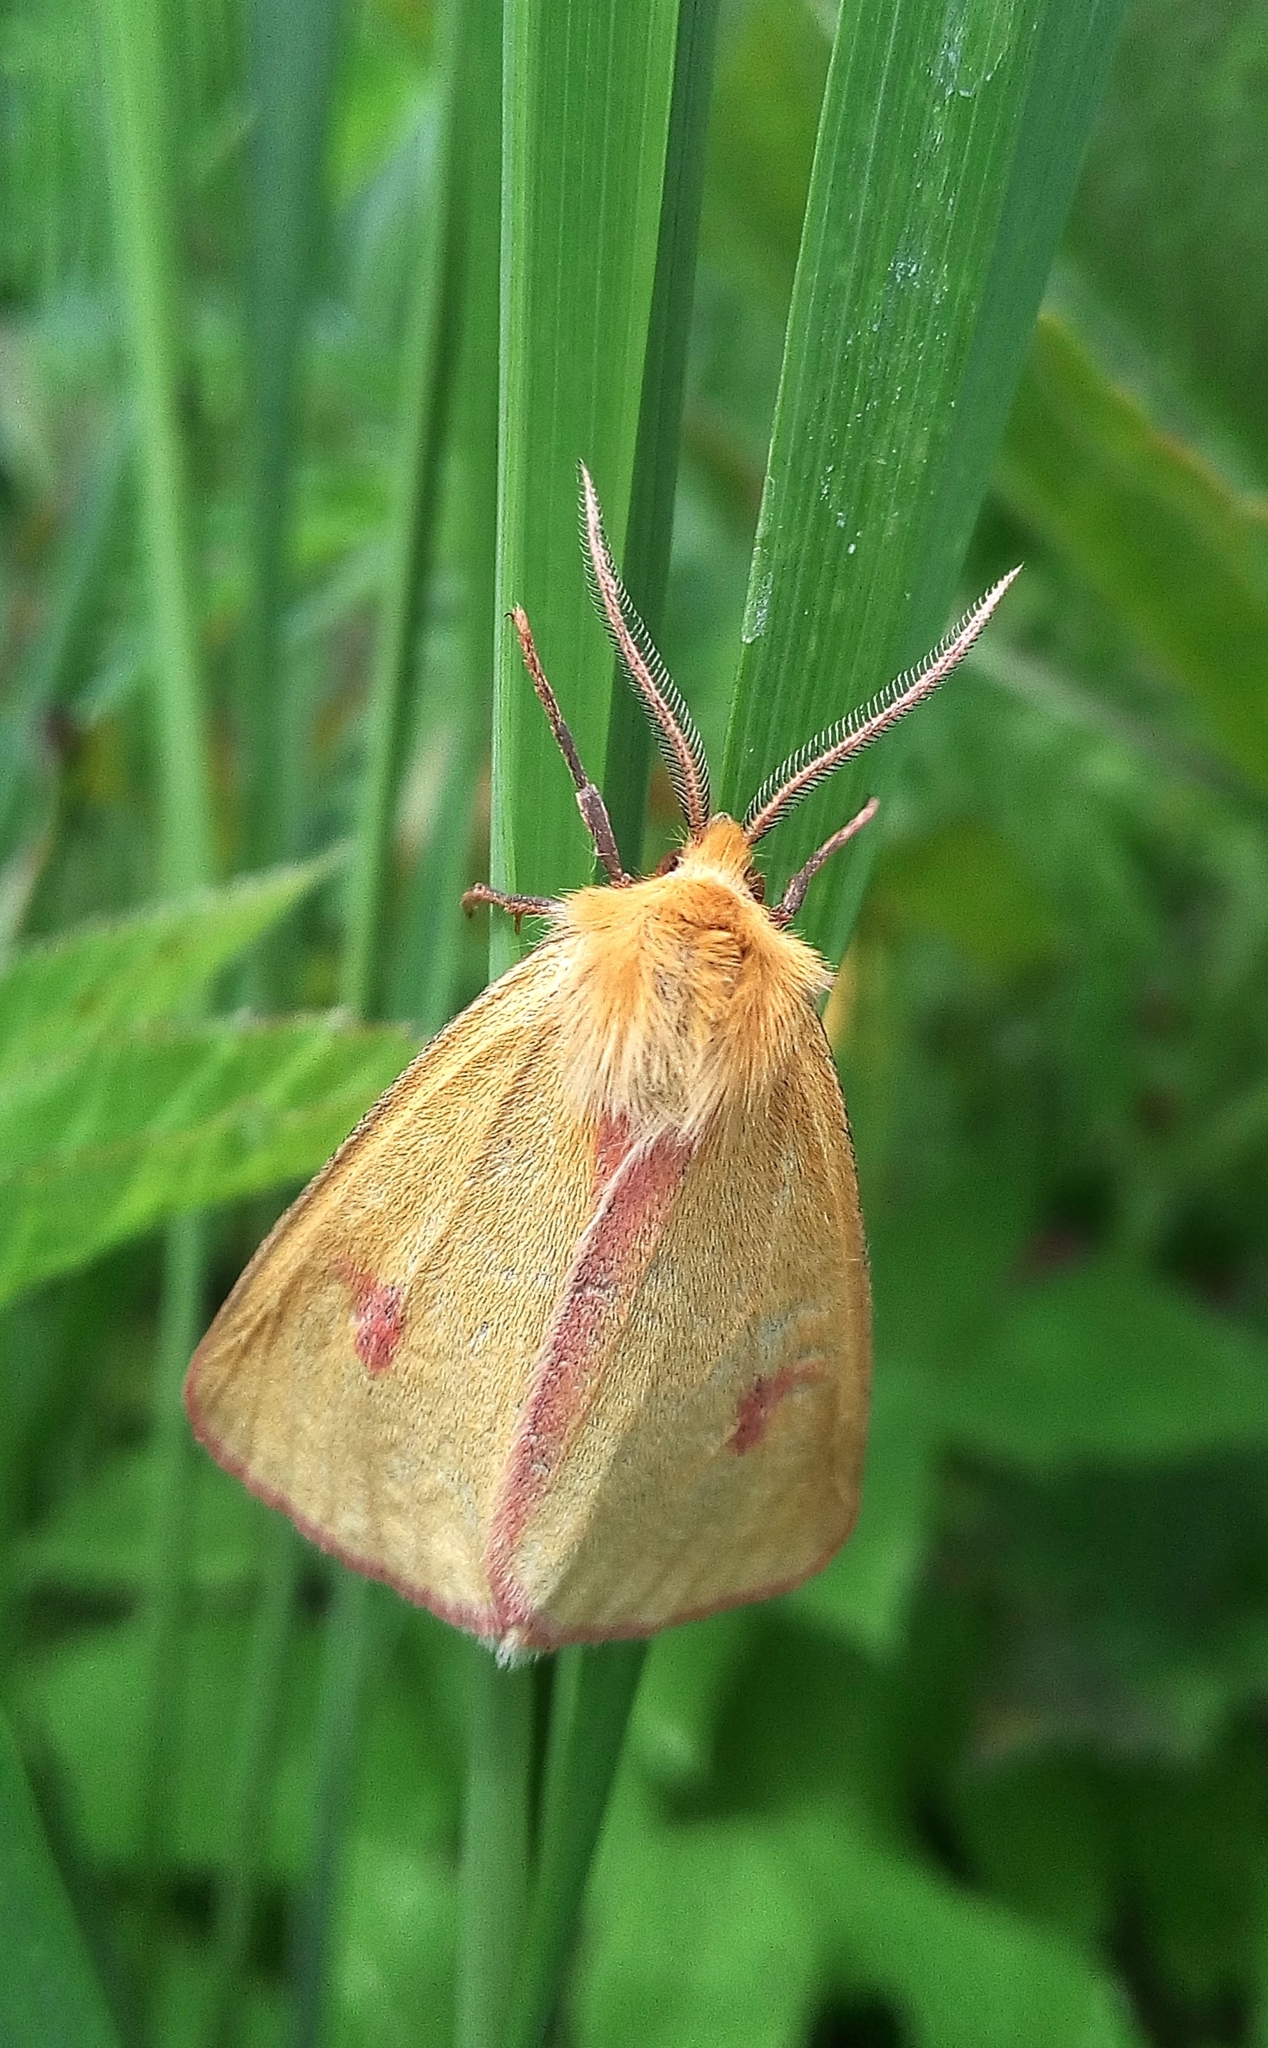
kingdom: Animalia
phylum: Arthropoda
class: Insecta
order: Lepidoptera
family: Erebidae
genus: Diacrisia
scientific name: Diacrisia sannio
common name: Clouded buff
